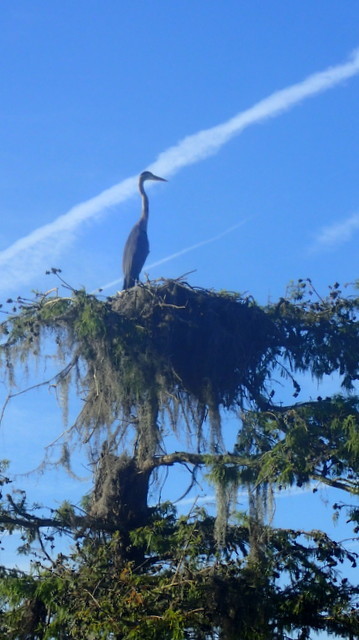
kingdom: Animalia
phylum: Chordata
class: Aves
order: Pelecaniformes
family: Ardeidae
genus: Ardea
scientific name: Ardea herodias
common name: Great blue heron
